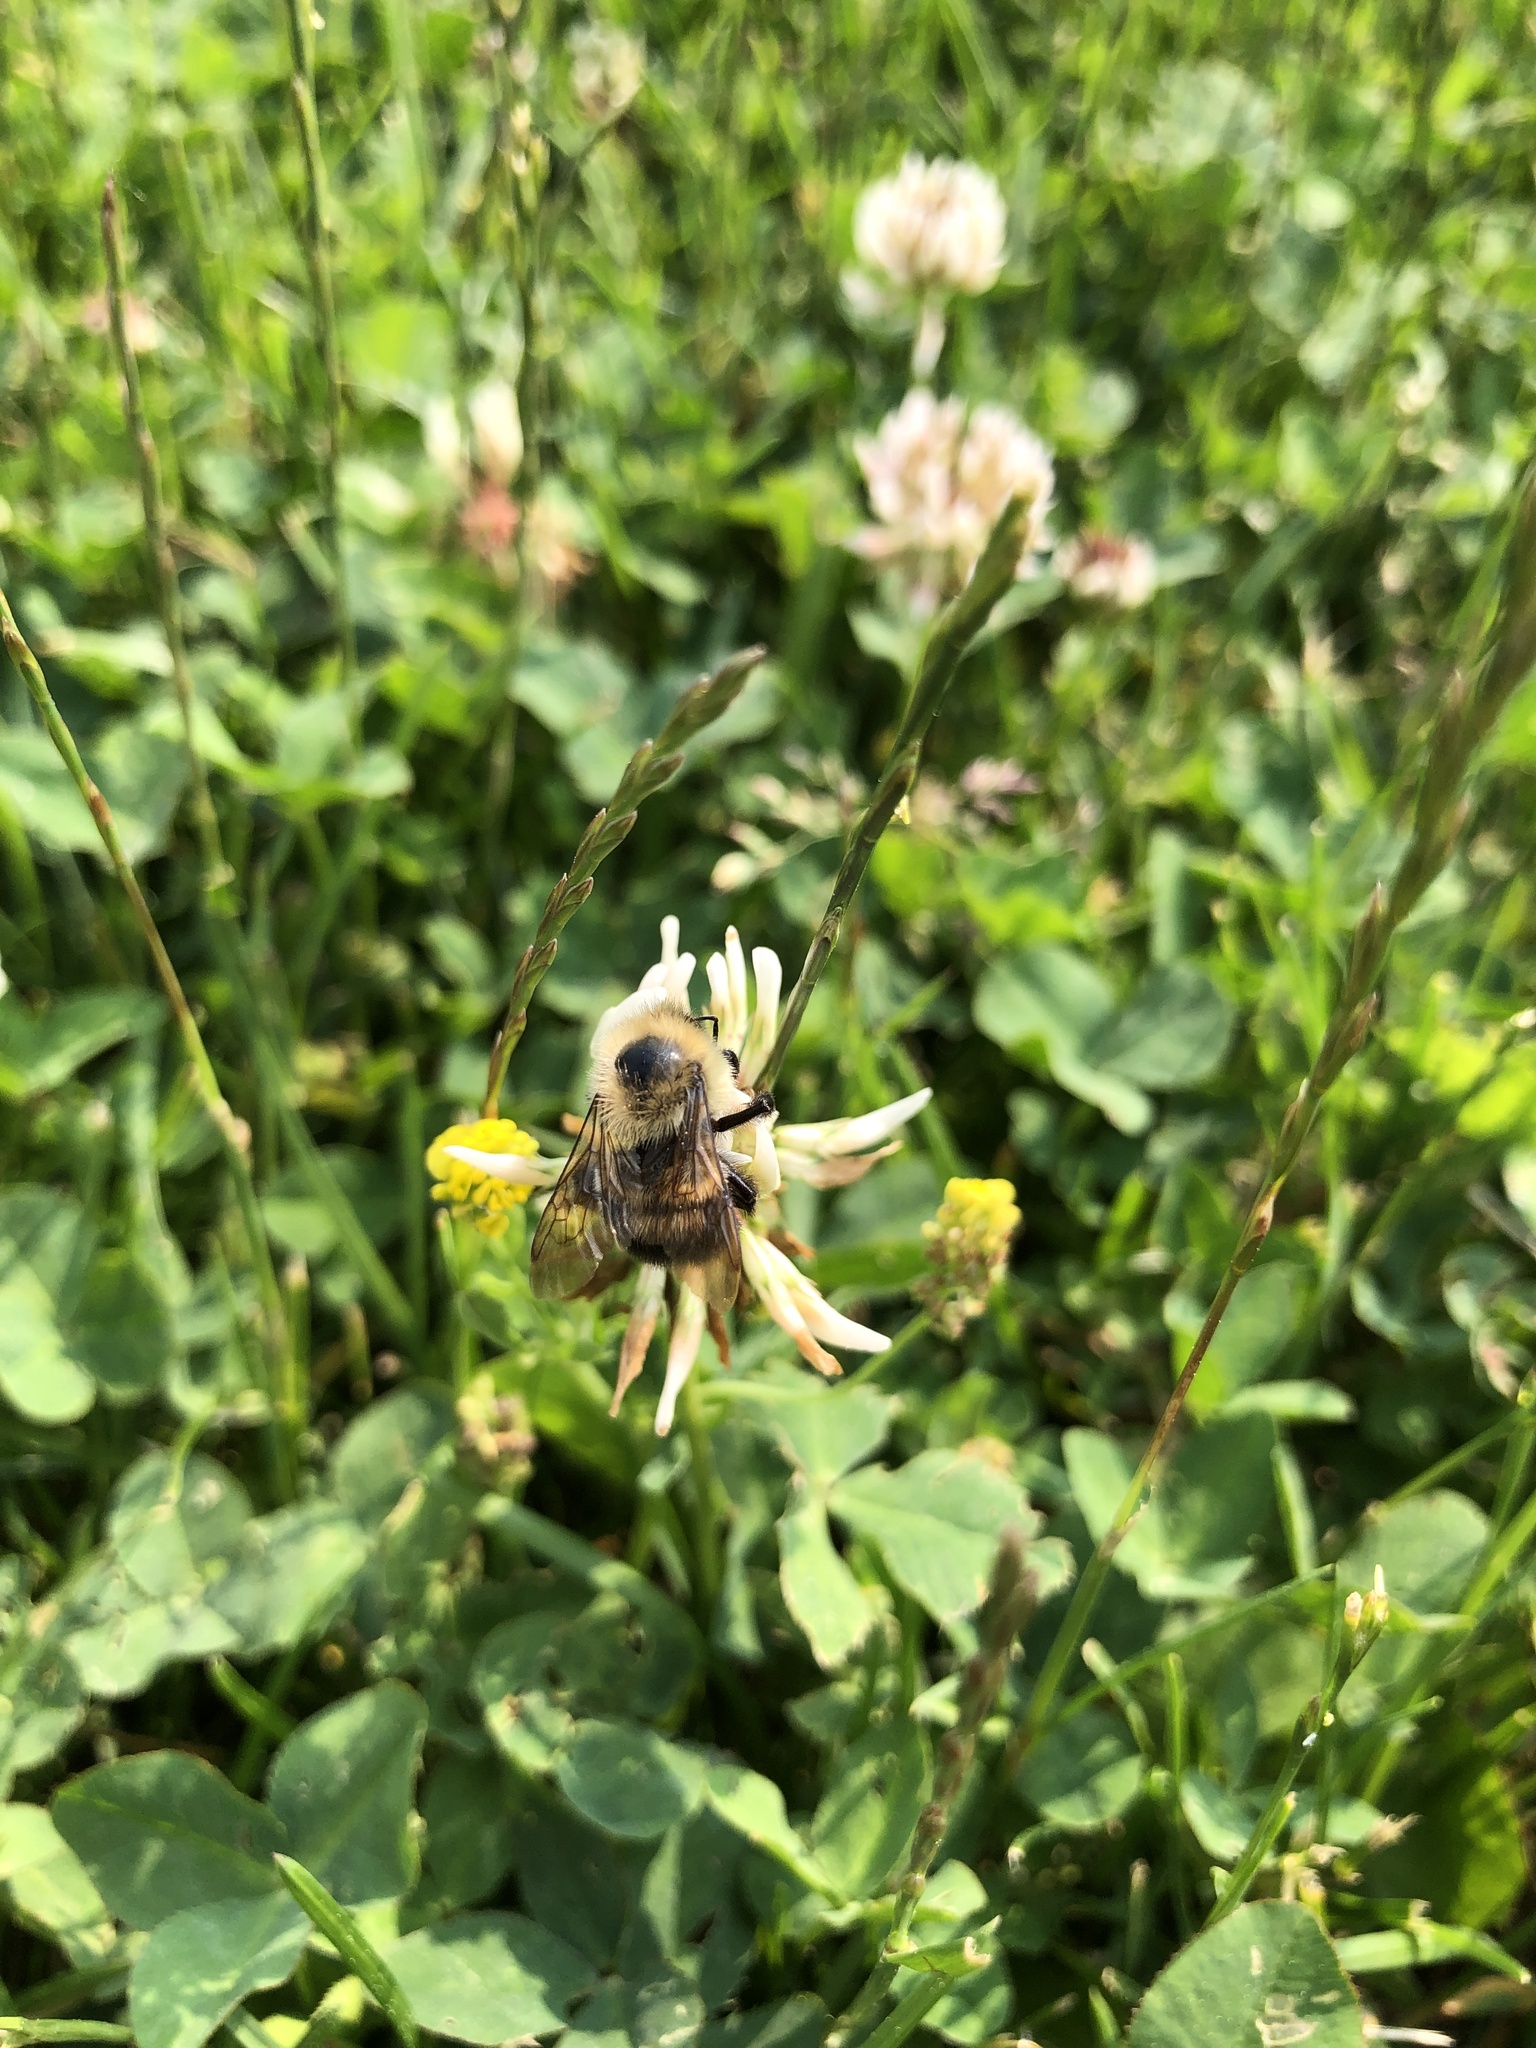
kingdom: Animalia
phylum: Arthropoda
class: Insecta
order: Hymenoptera
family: Apidae
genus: Bombus
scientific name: Bombus bimaculatus
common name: Two-spotted bumble bee
